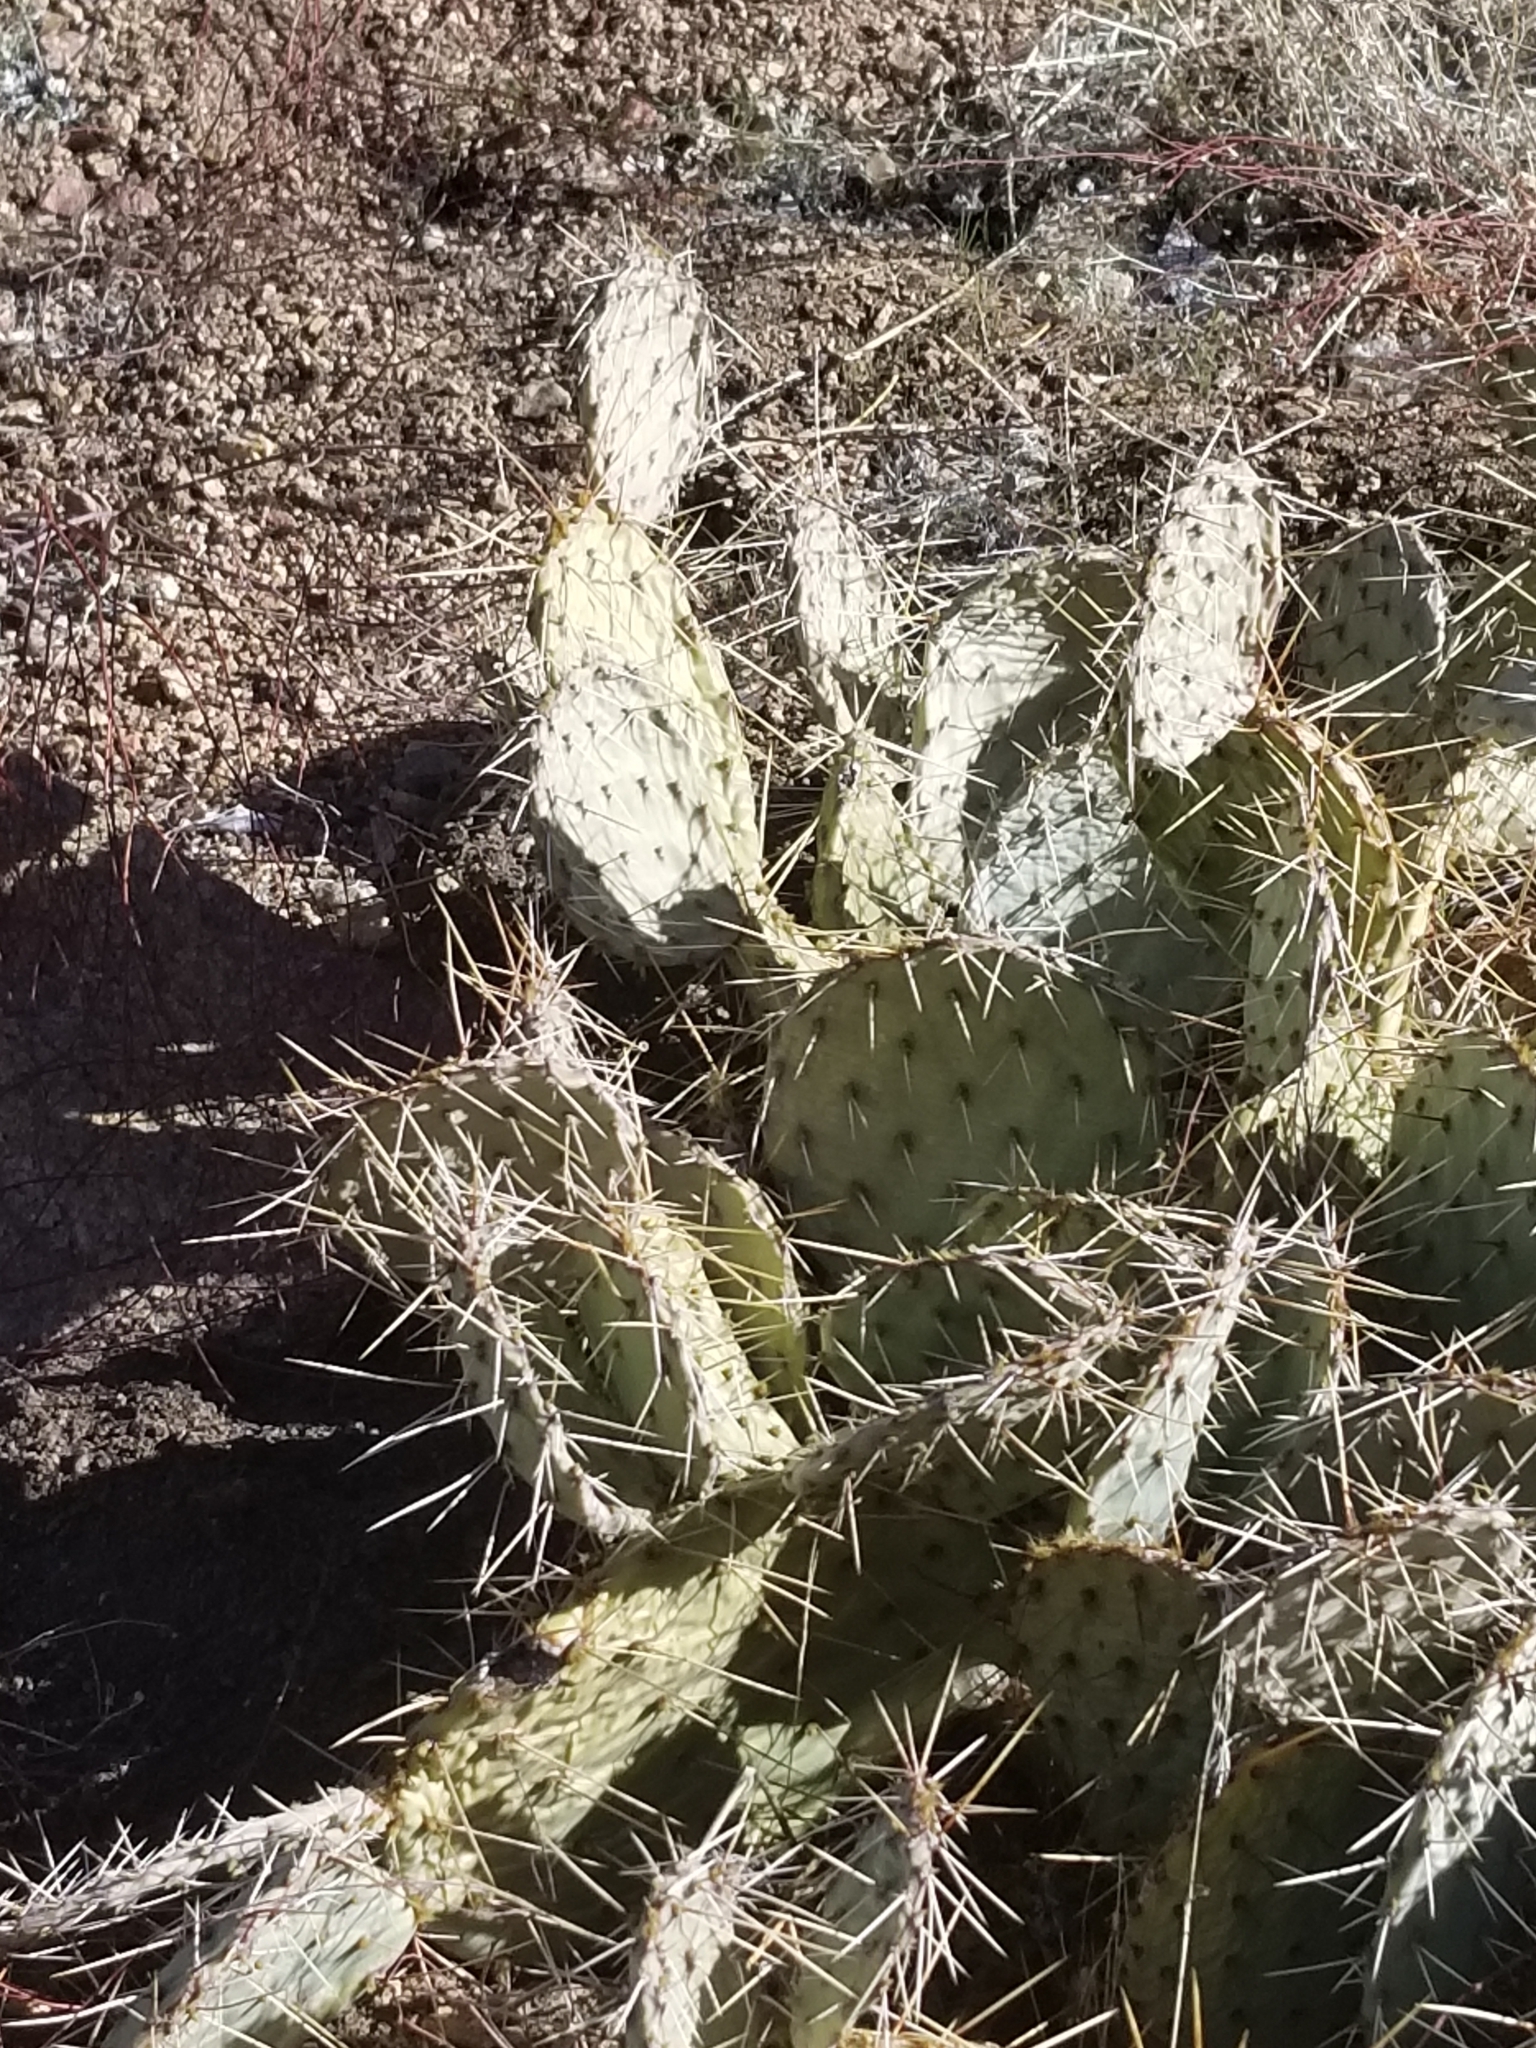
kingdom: Plantae
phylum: Tracheophyta
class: Magnoliopsida
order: Caryophyllales
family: Cactaceae
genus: Opuntia
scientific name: Opuntia phaeacantha
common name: New mexico prickly-pear
